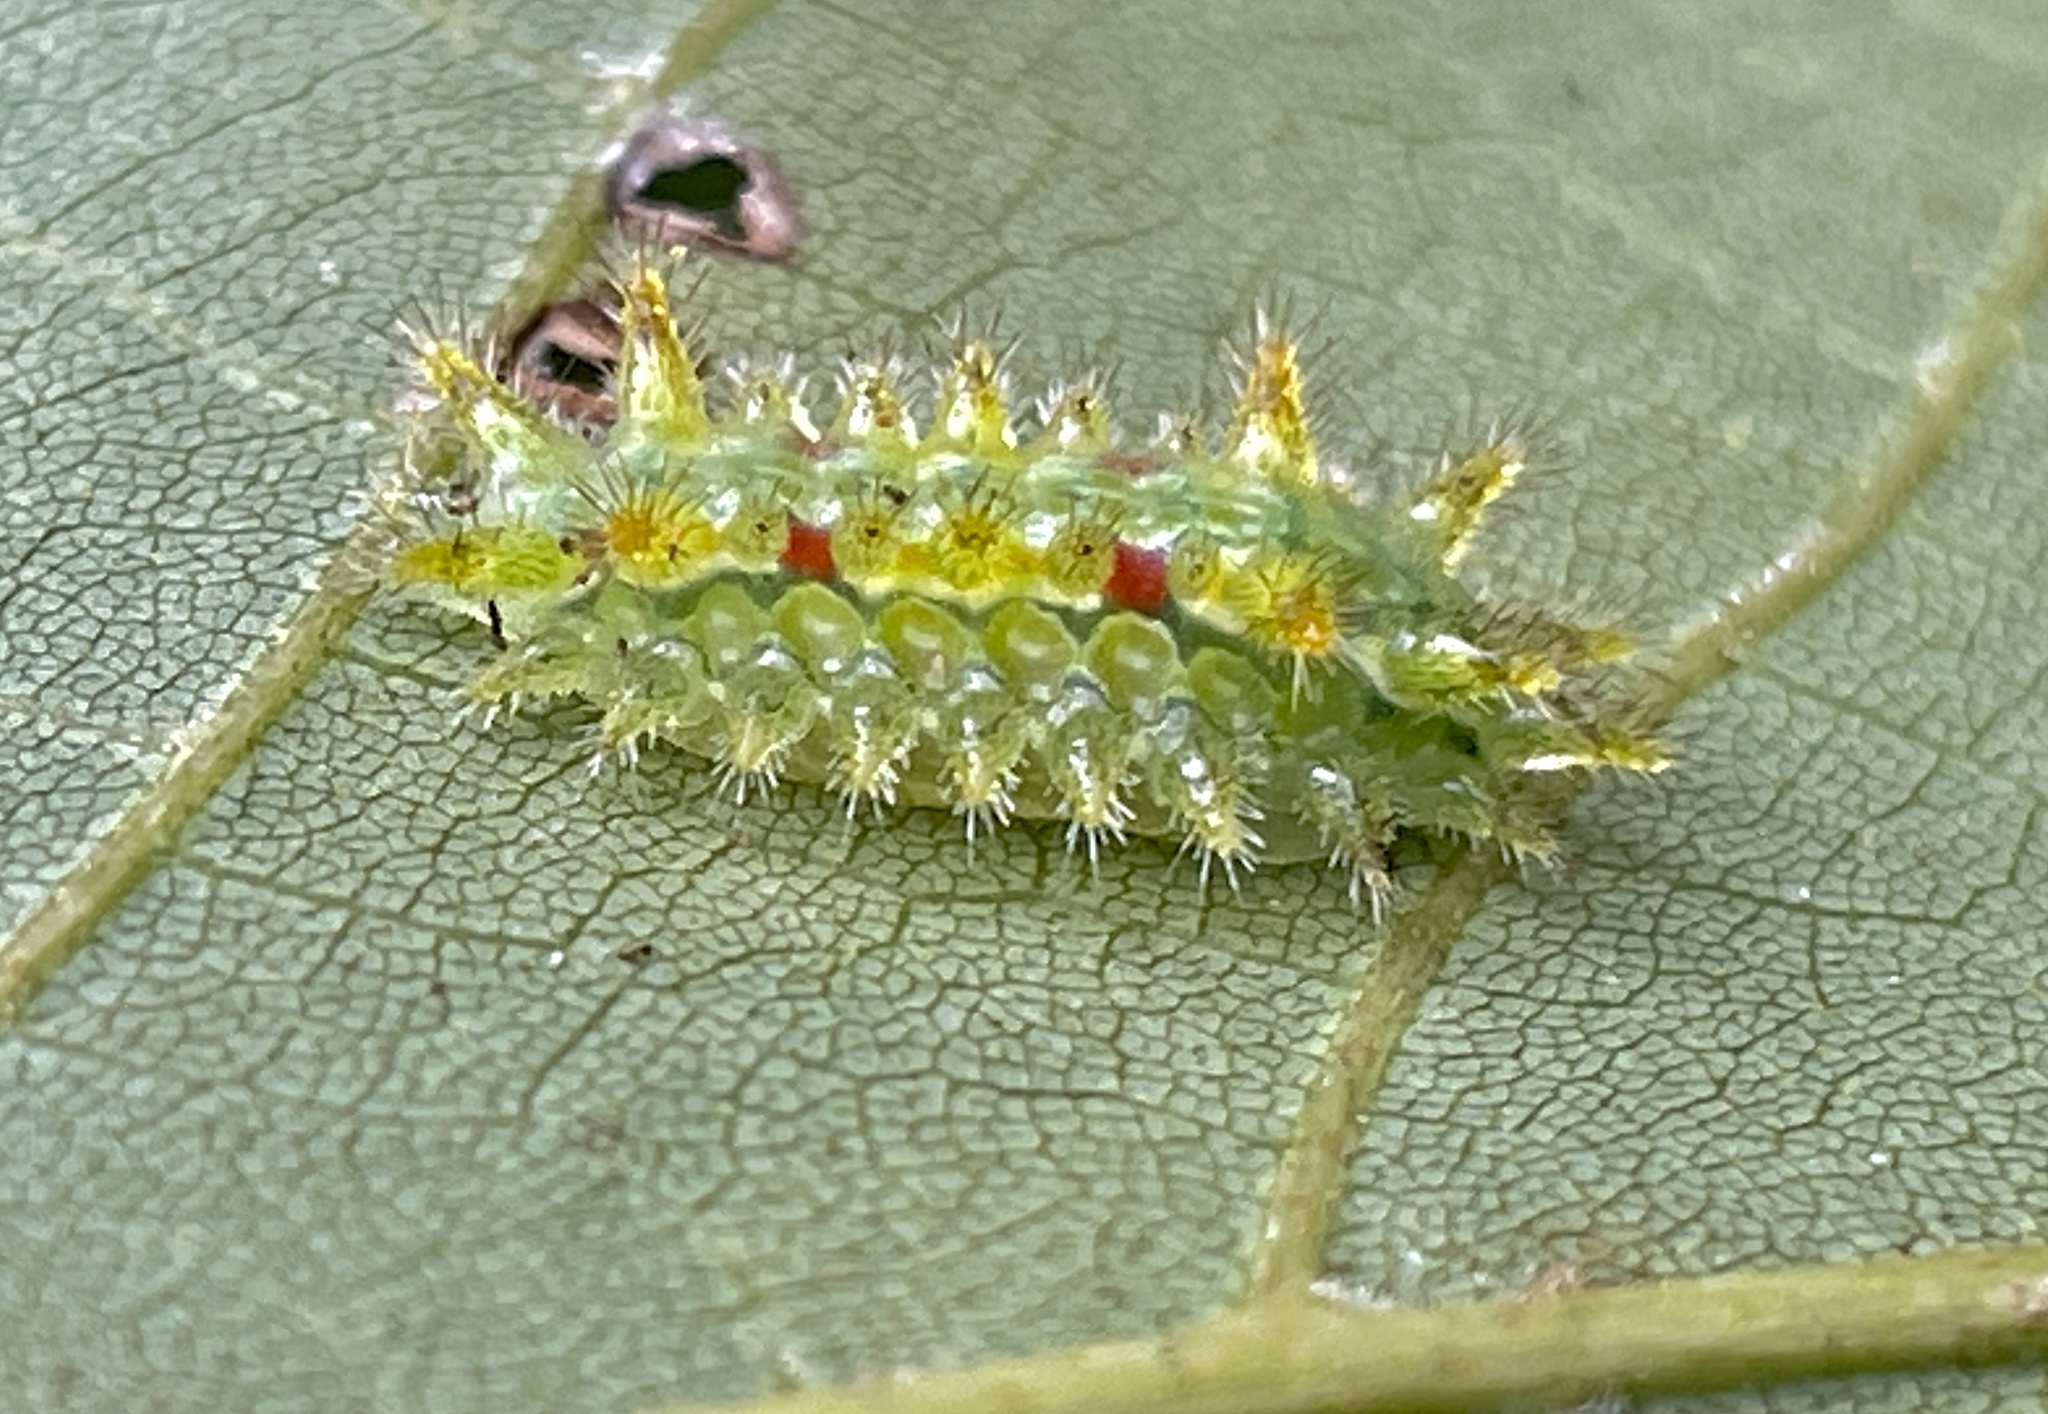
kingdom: Animalia
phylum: Arthropoda
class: Insecta
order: Lepidoptera
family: Limacodidae
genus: Euclea
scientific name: Euclea delphinii
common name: Spiny oak-slug moth
